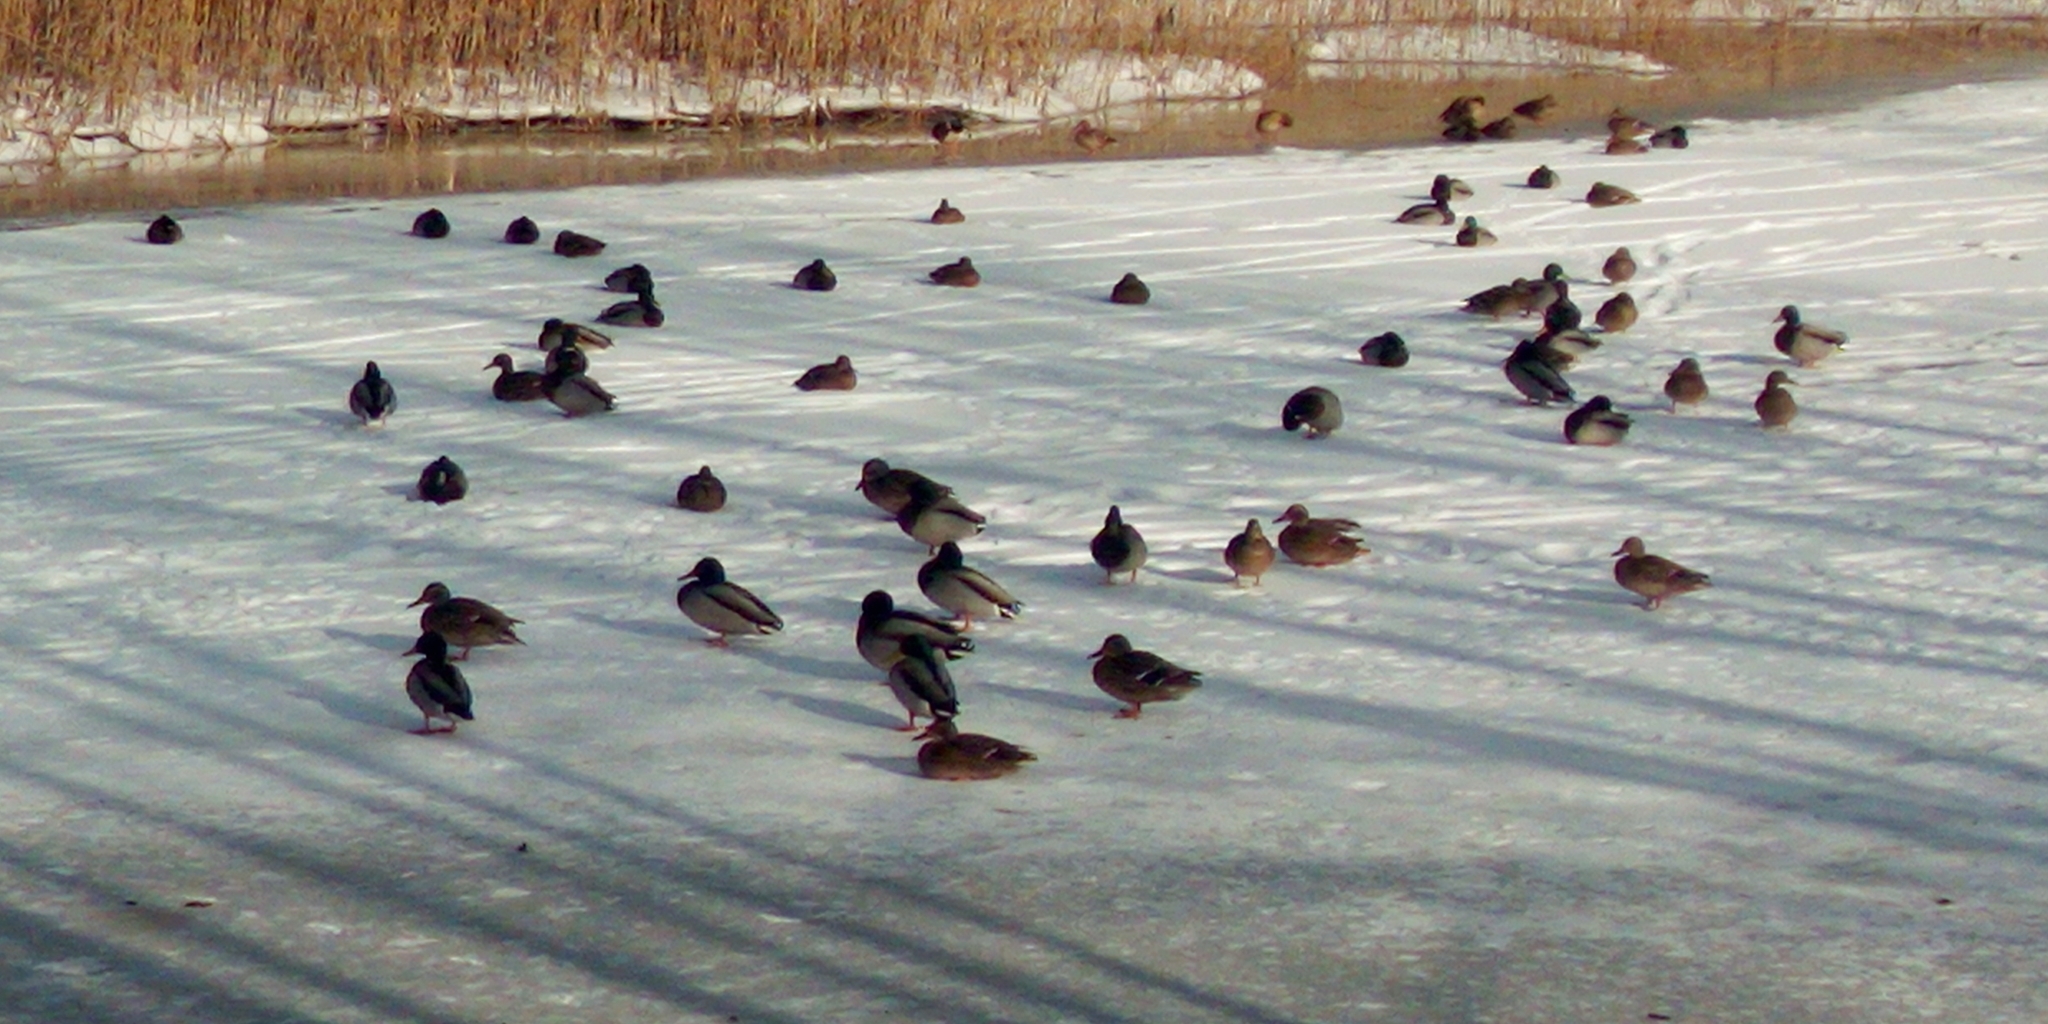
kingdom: Animalia
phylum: Chordata
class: Aves
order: Anseriformes
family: Anatidae
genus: Anas
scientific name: Anas platyrhynchos
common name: Mallard
